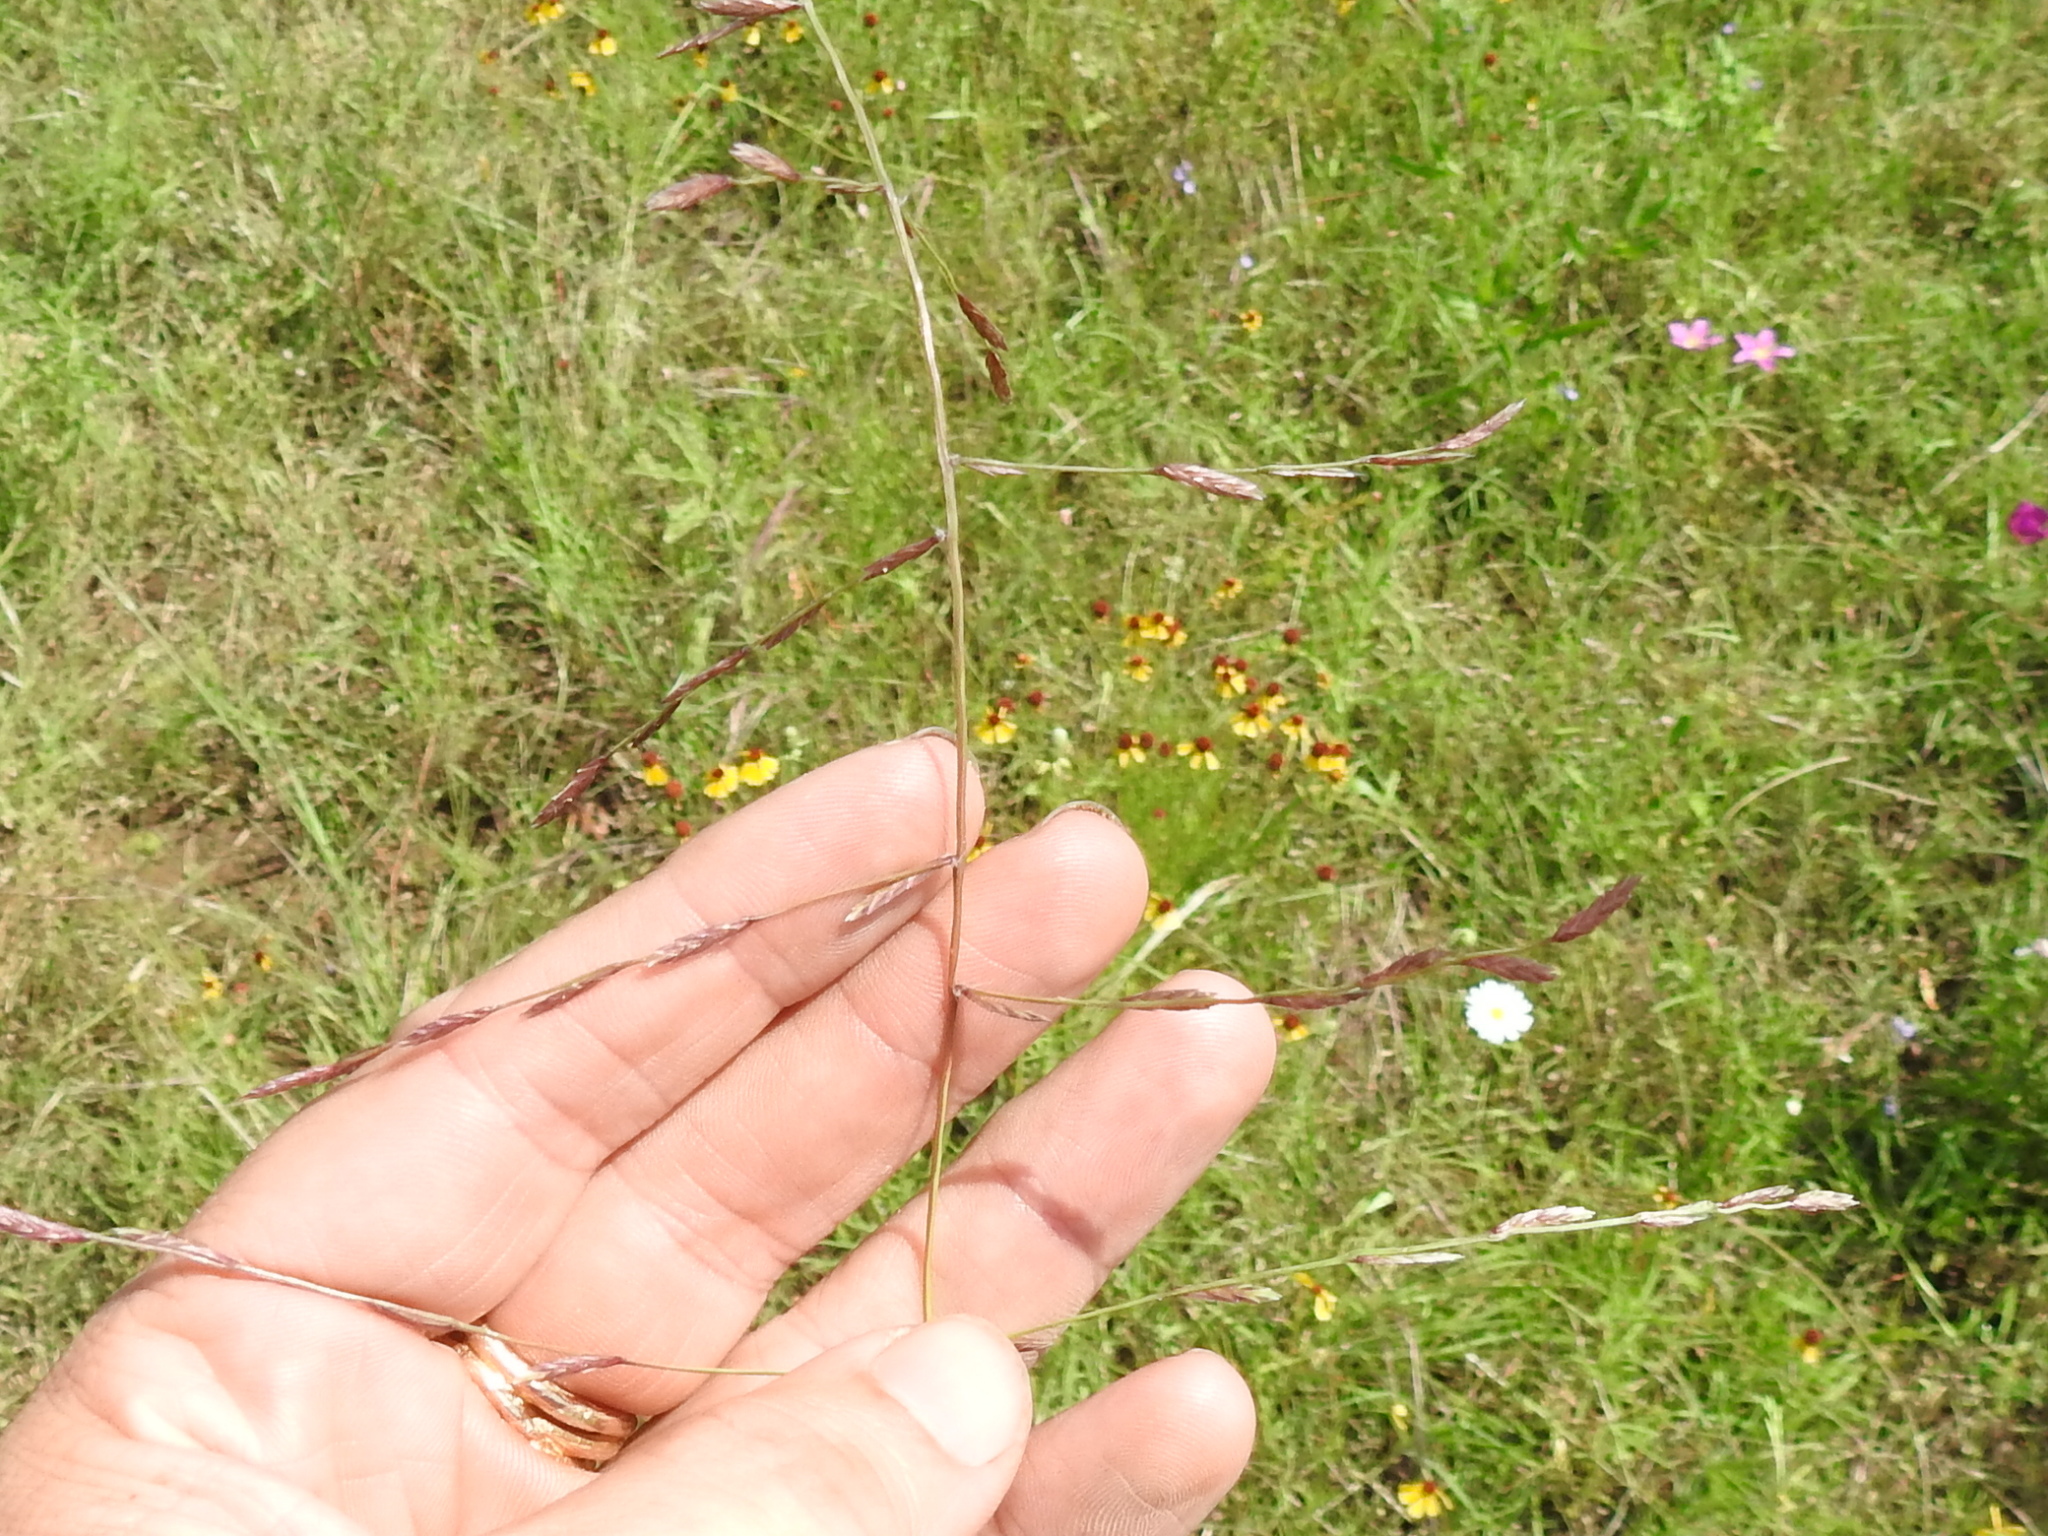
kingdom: Plantae
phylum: Tracheophyta
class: Liliopsida
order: Poales
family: Poaceae
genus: Eragrostis
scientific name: Eragrostis sessilispica
